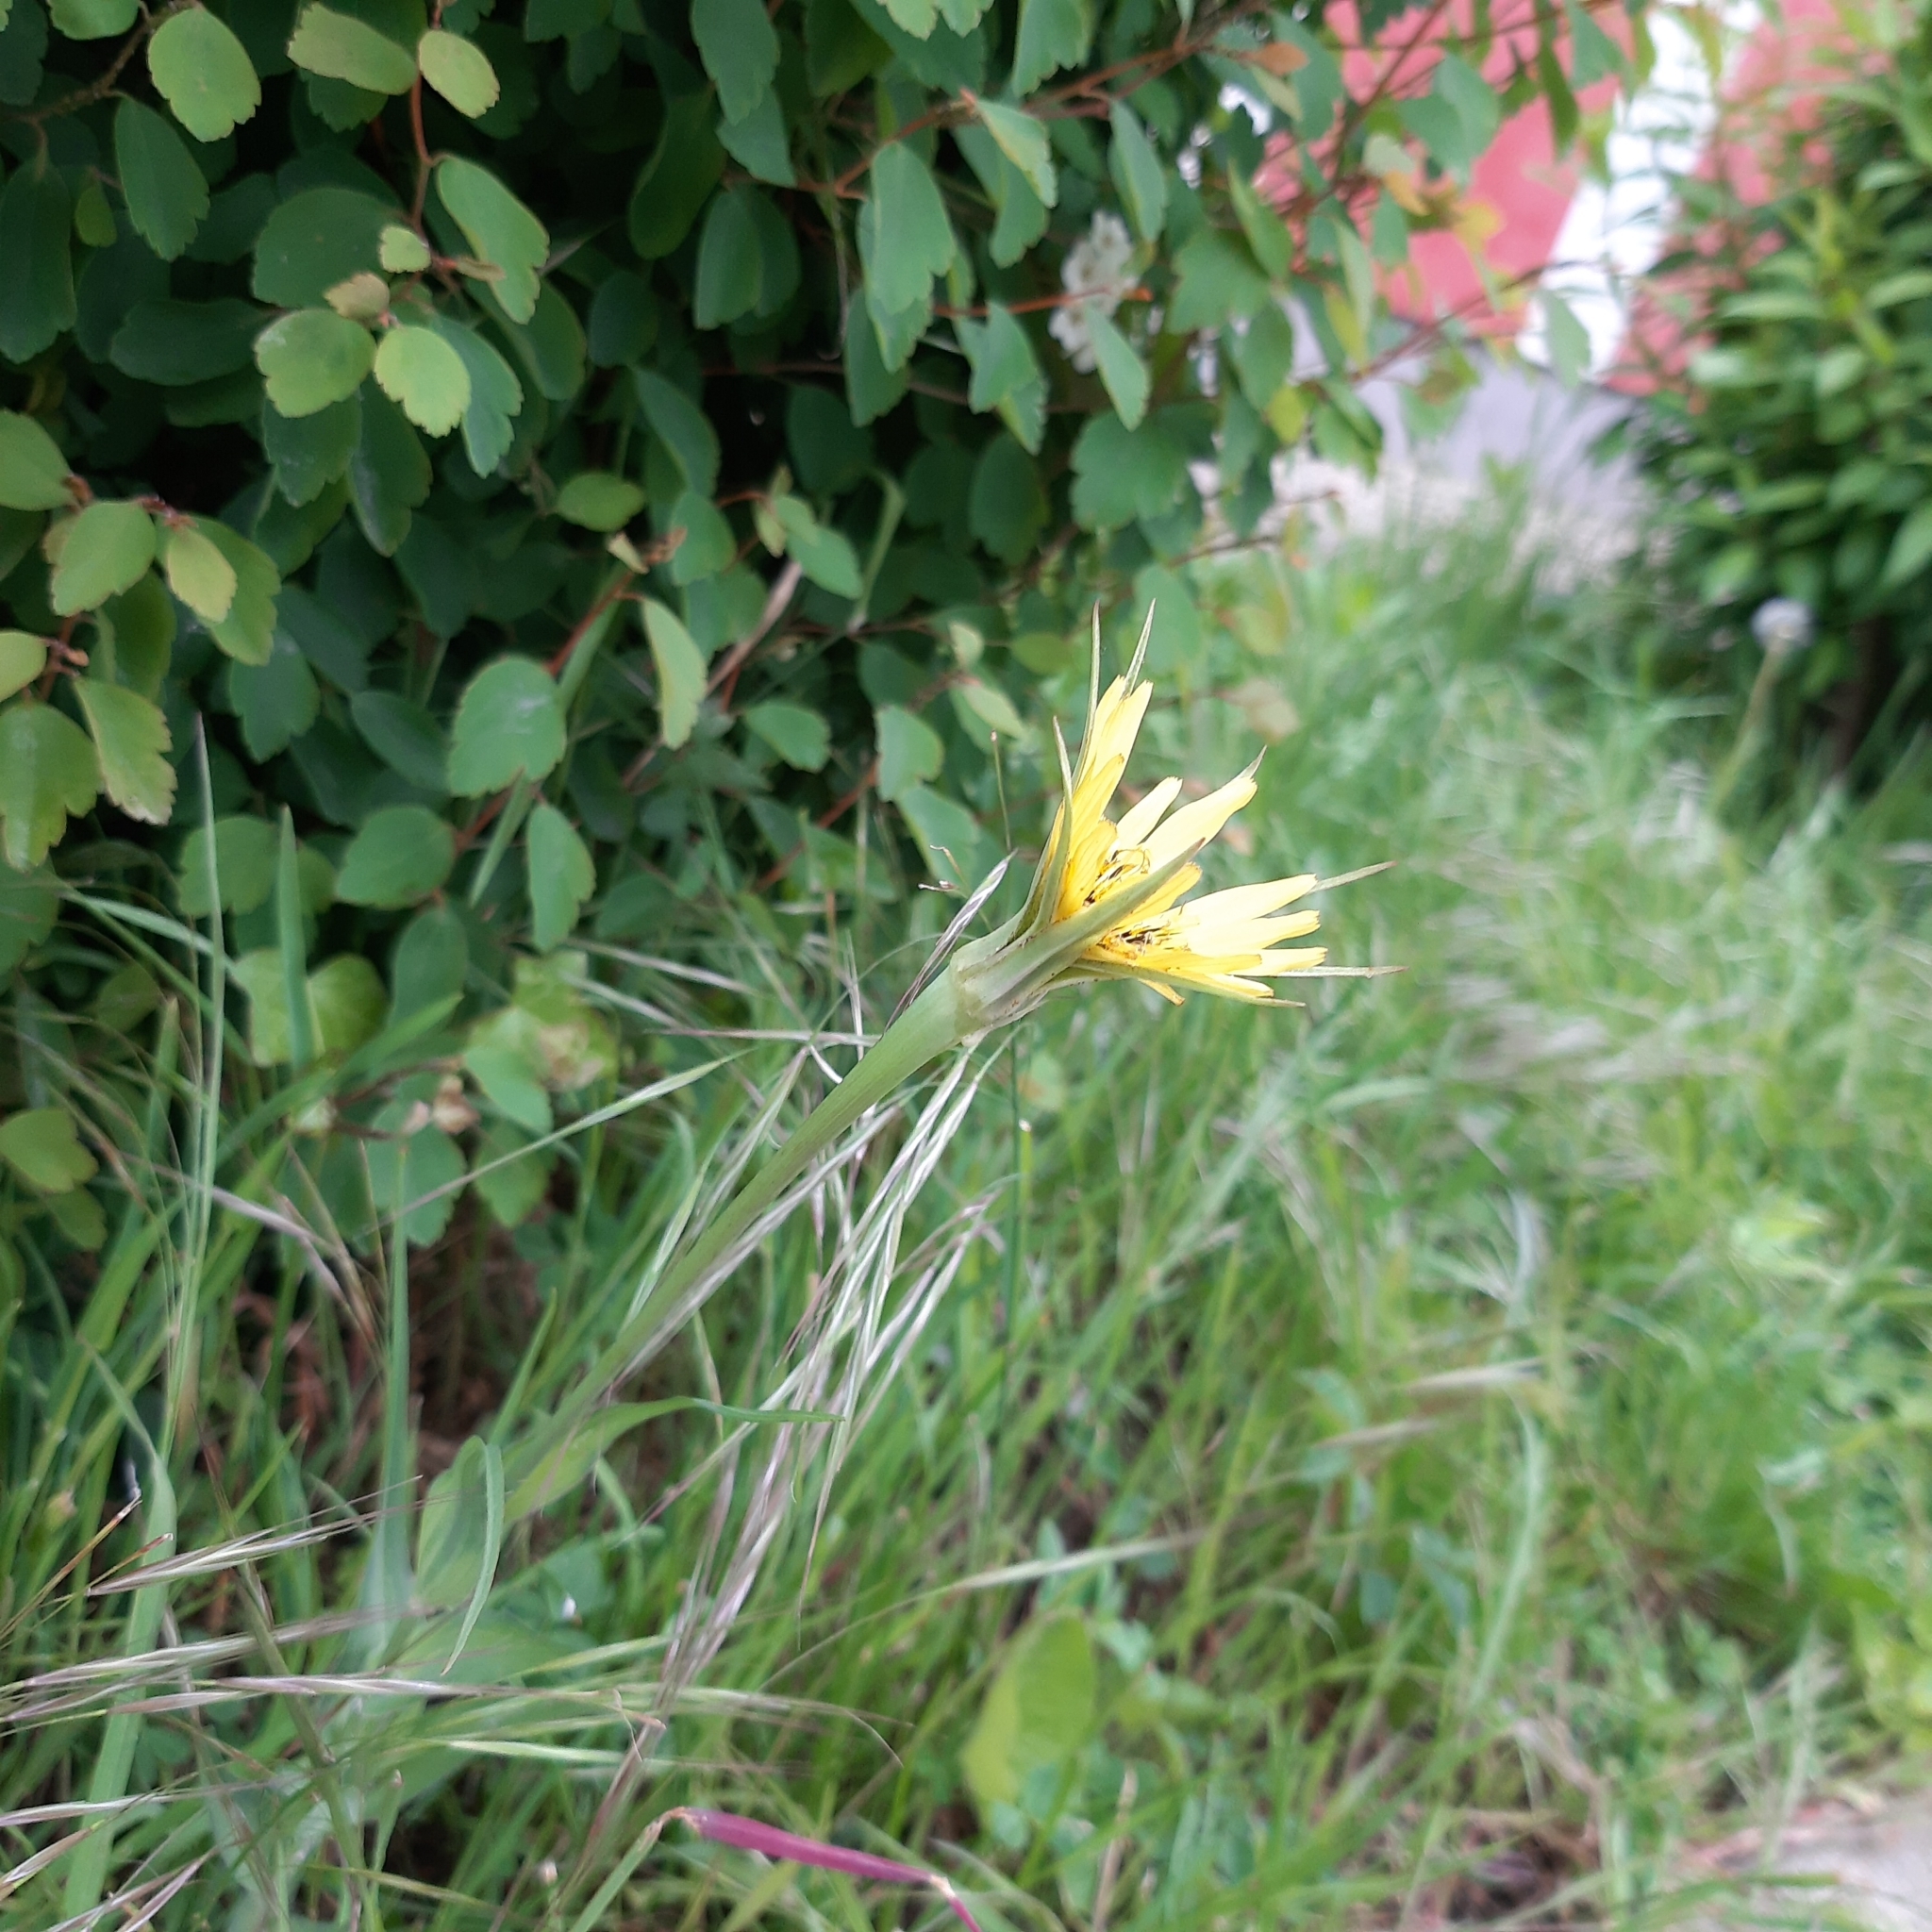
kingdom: Plantae
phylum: Tracheophyta
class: Magnoliopsida
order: Asterales
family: Asteraceae
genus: Tragopogon
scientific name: Tragopogon dubius
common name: Yellow salsify
